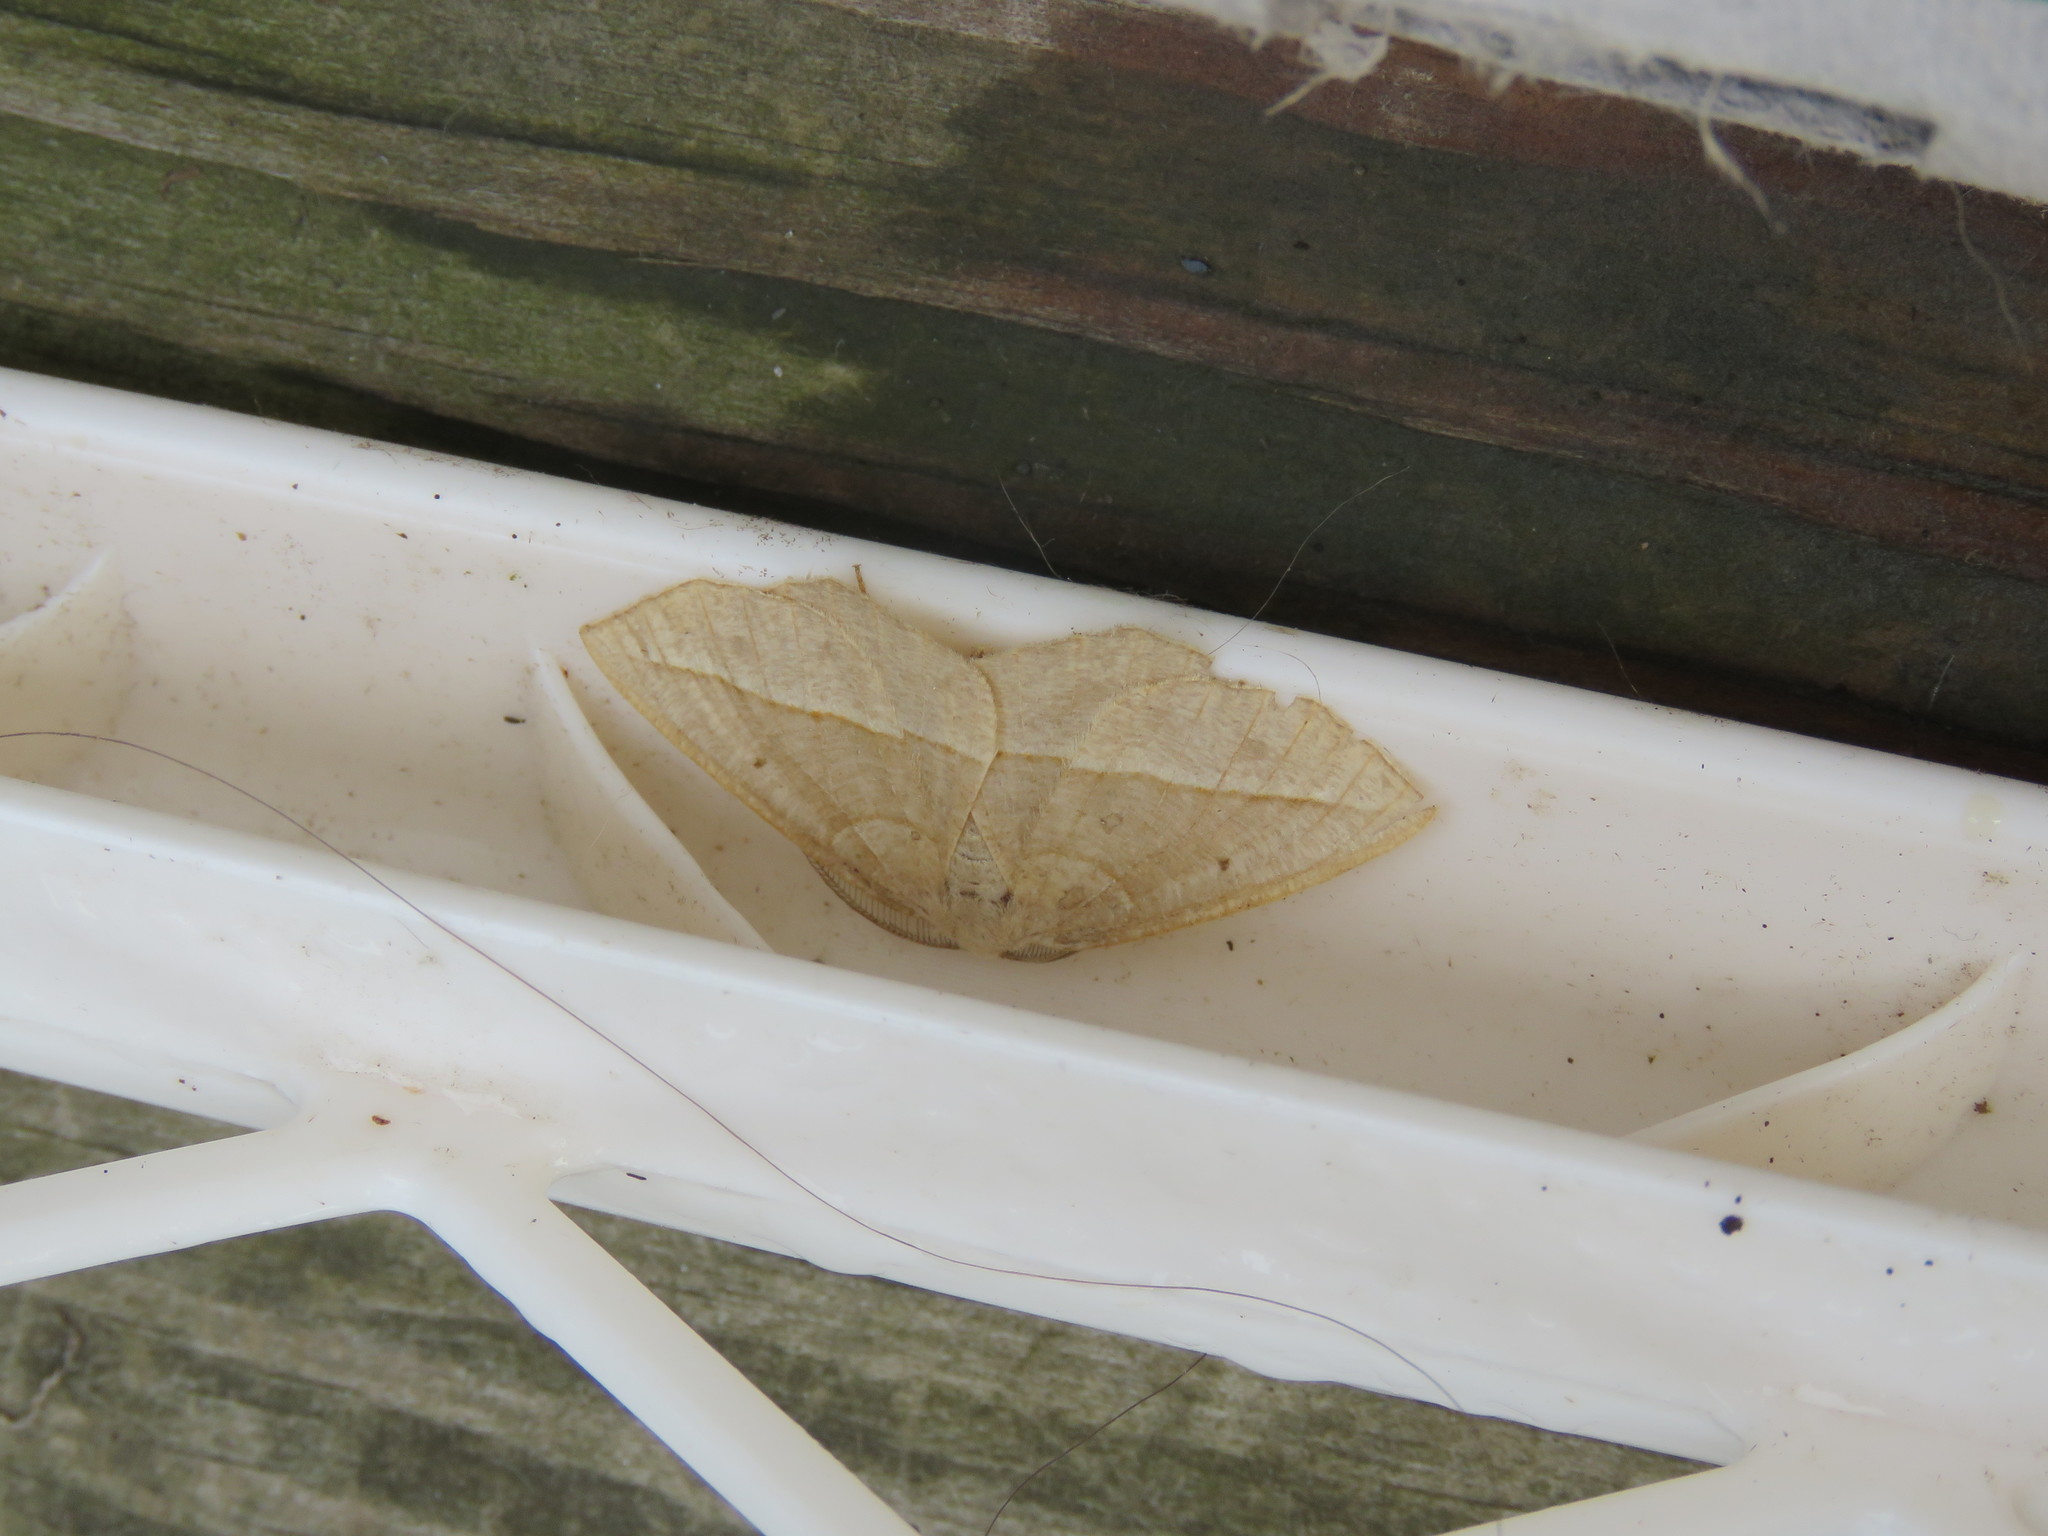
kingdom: Animalia
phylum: Arthropoda
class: Insecta
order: Lepidoptera
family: Geometridae
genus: Eusarca
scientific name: Eusarca confusaria
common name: Confused eusarca
